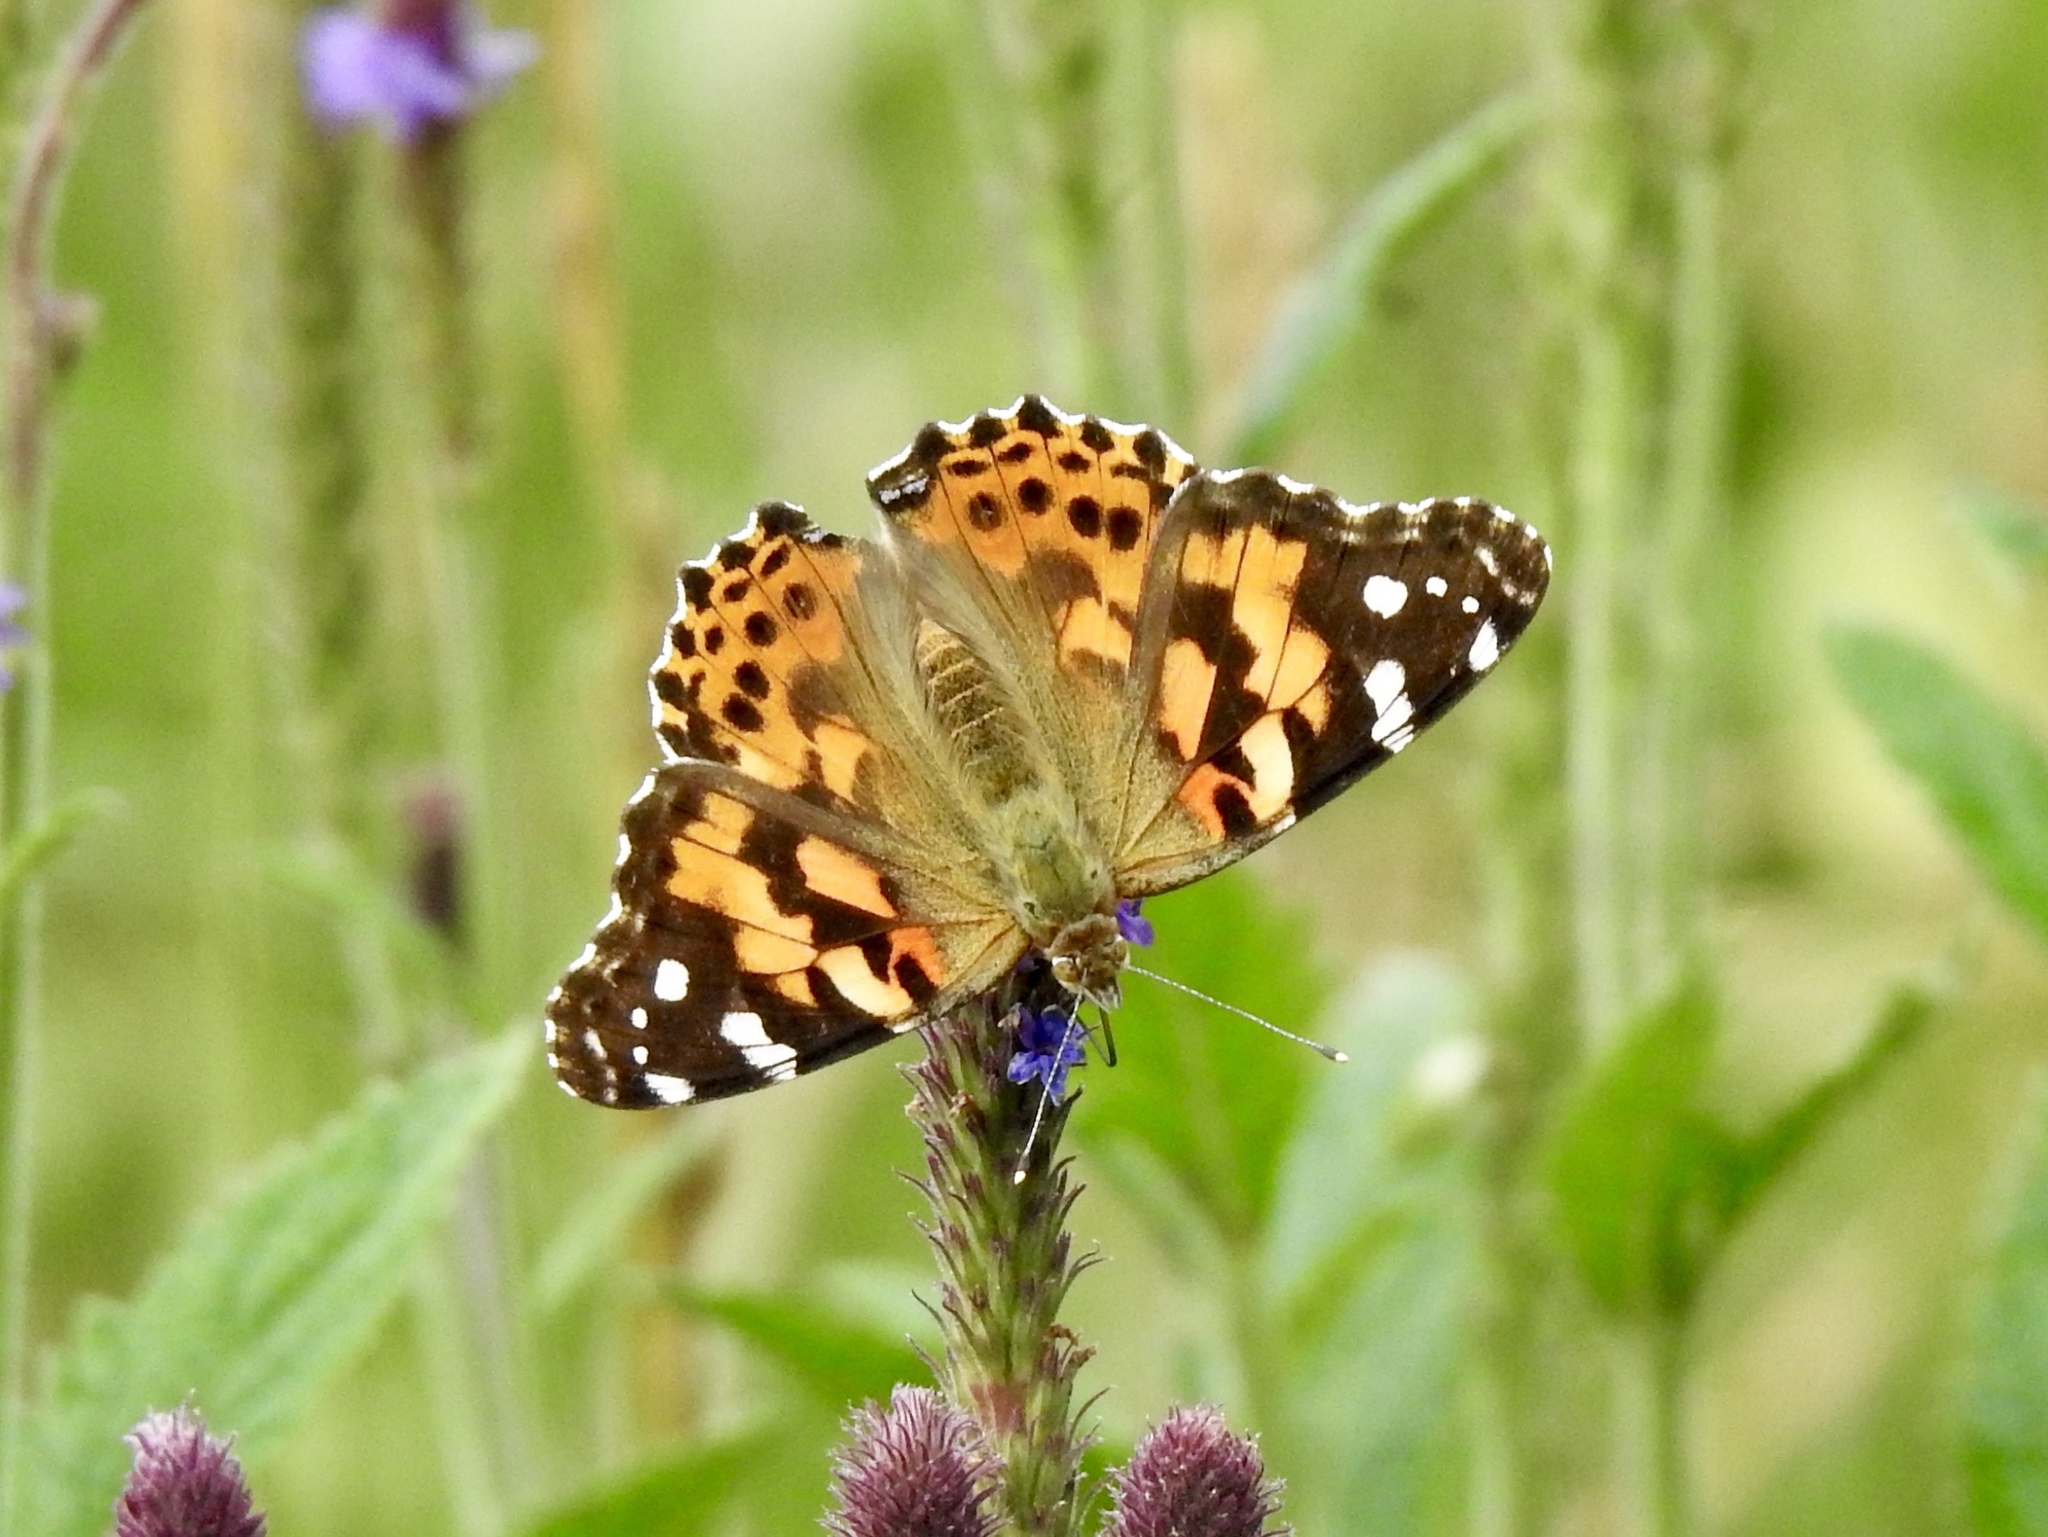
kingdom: Animalia
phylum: Arthropoda
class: Insecta
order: Lepidoptera
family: Nymphalidae
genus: Vanessa
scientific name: Vanessa cardui
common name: Painted lady
